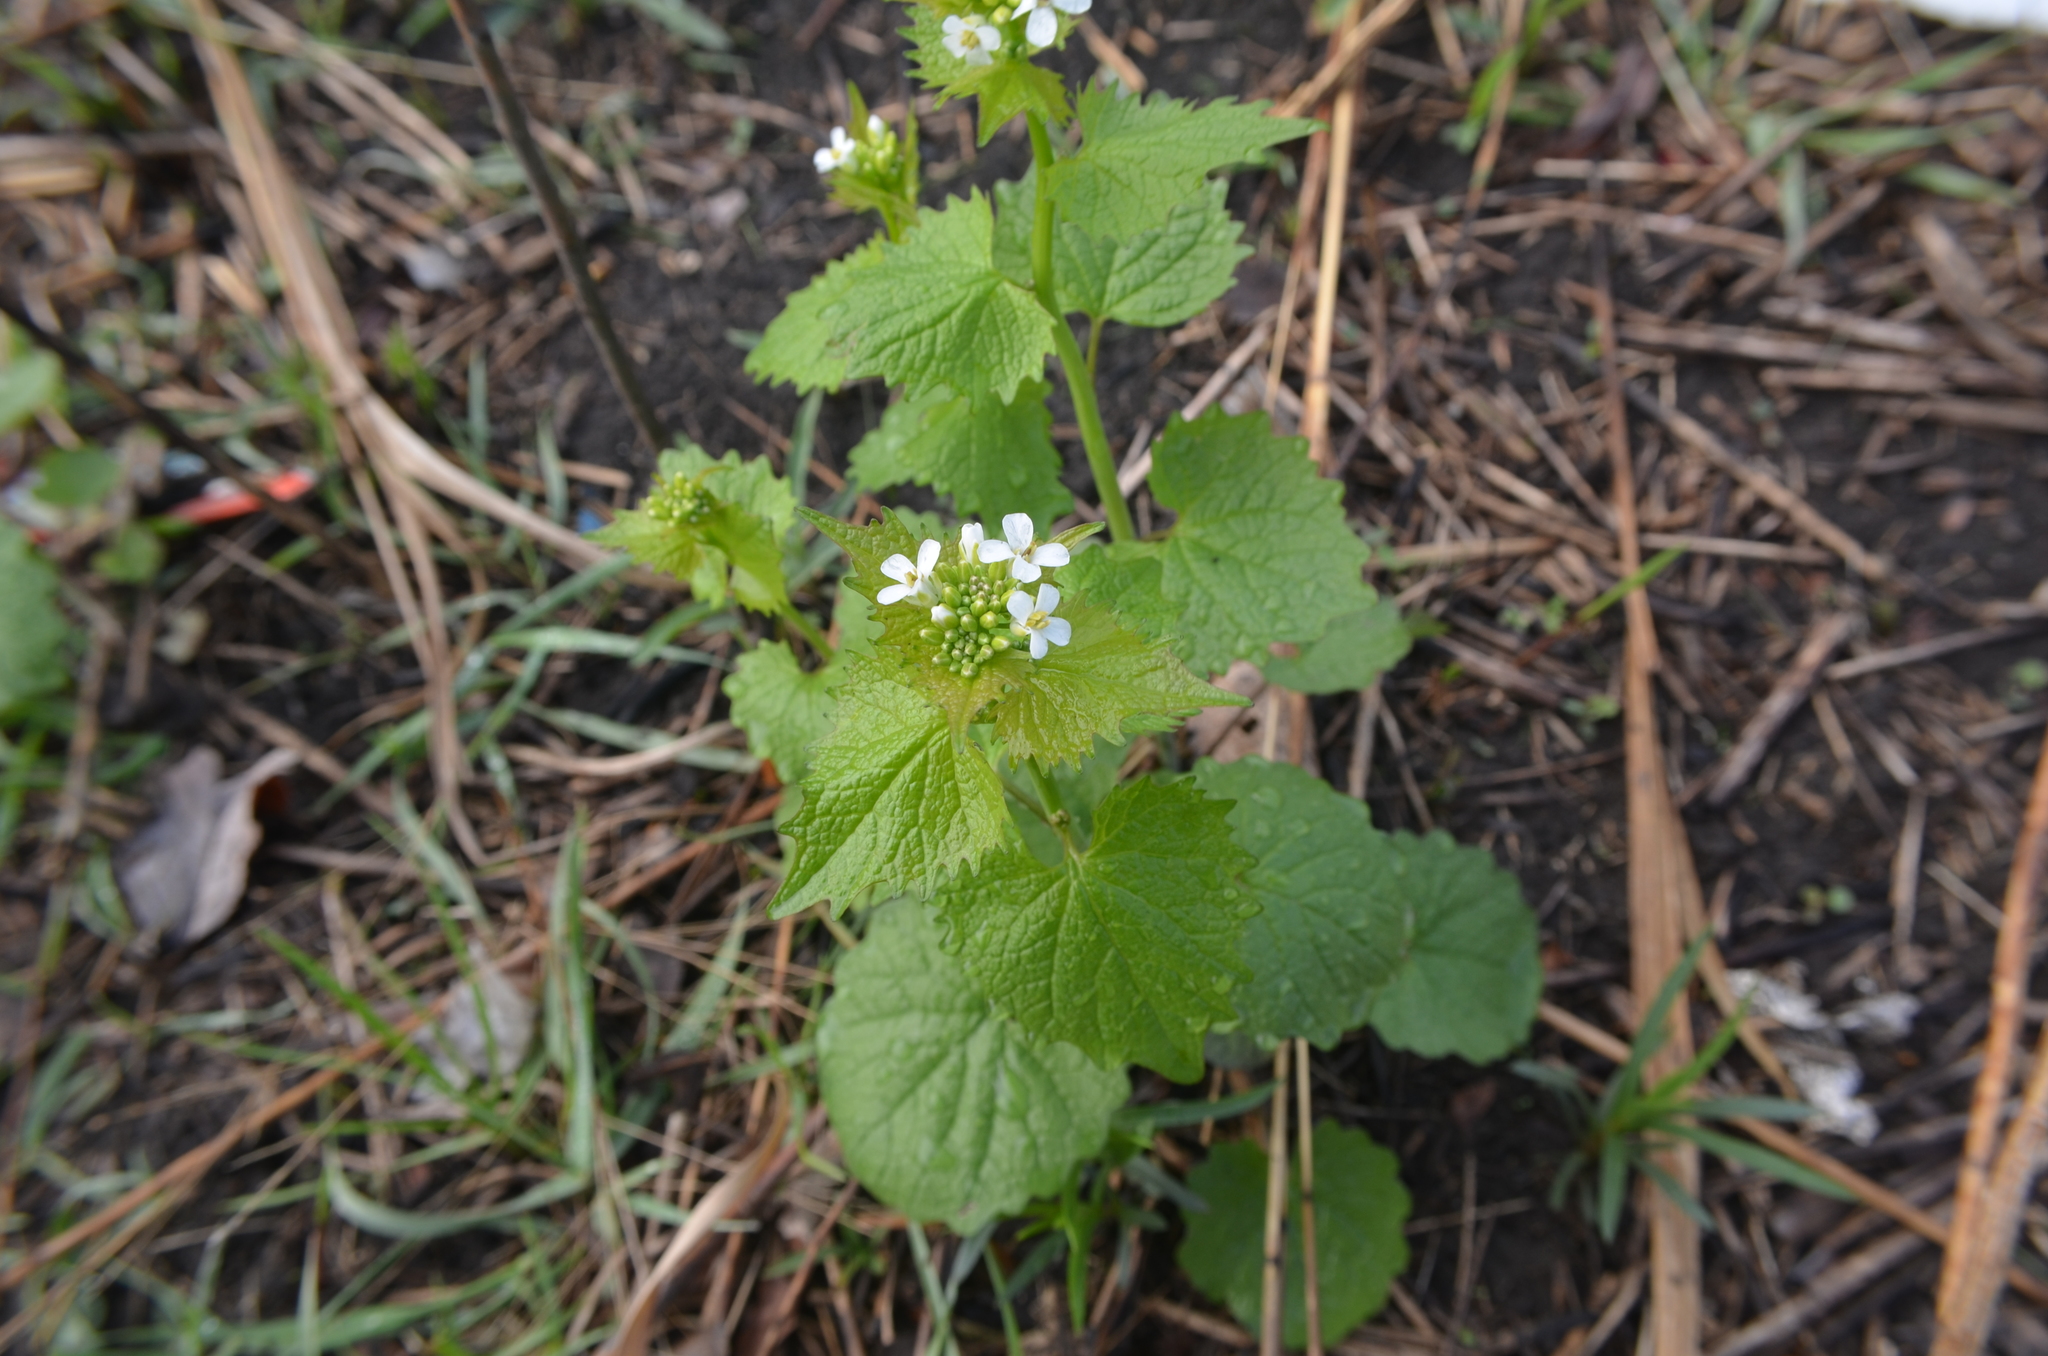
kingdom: Plantae
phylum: Tracheophyta
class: Magnoliopsida
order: Brassicales
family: Brassicaceae
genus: Alliaria
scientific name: Alliaria petiolata
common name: Garlic mustard
